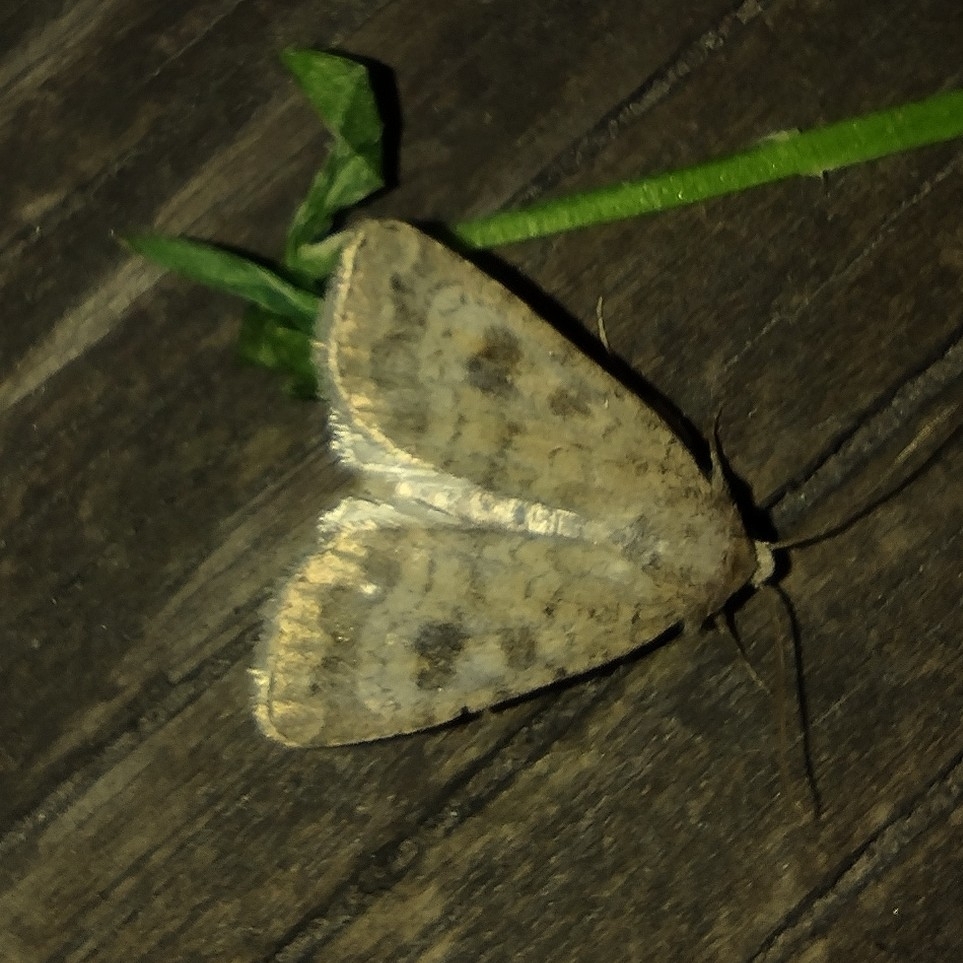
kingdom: Animalia
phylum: Arthropoda
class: Insecta
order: Lepidoptera
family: Noctuidae
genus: Caradrina
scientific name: Caradrina morpheus
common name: Mottled rustic
